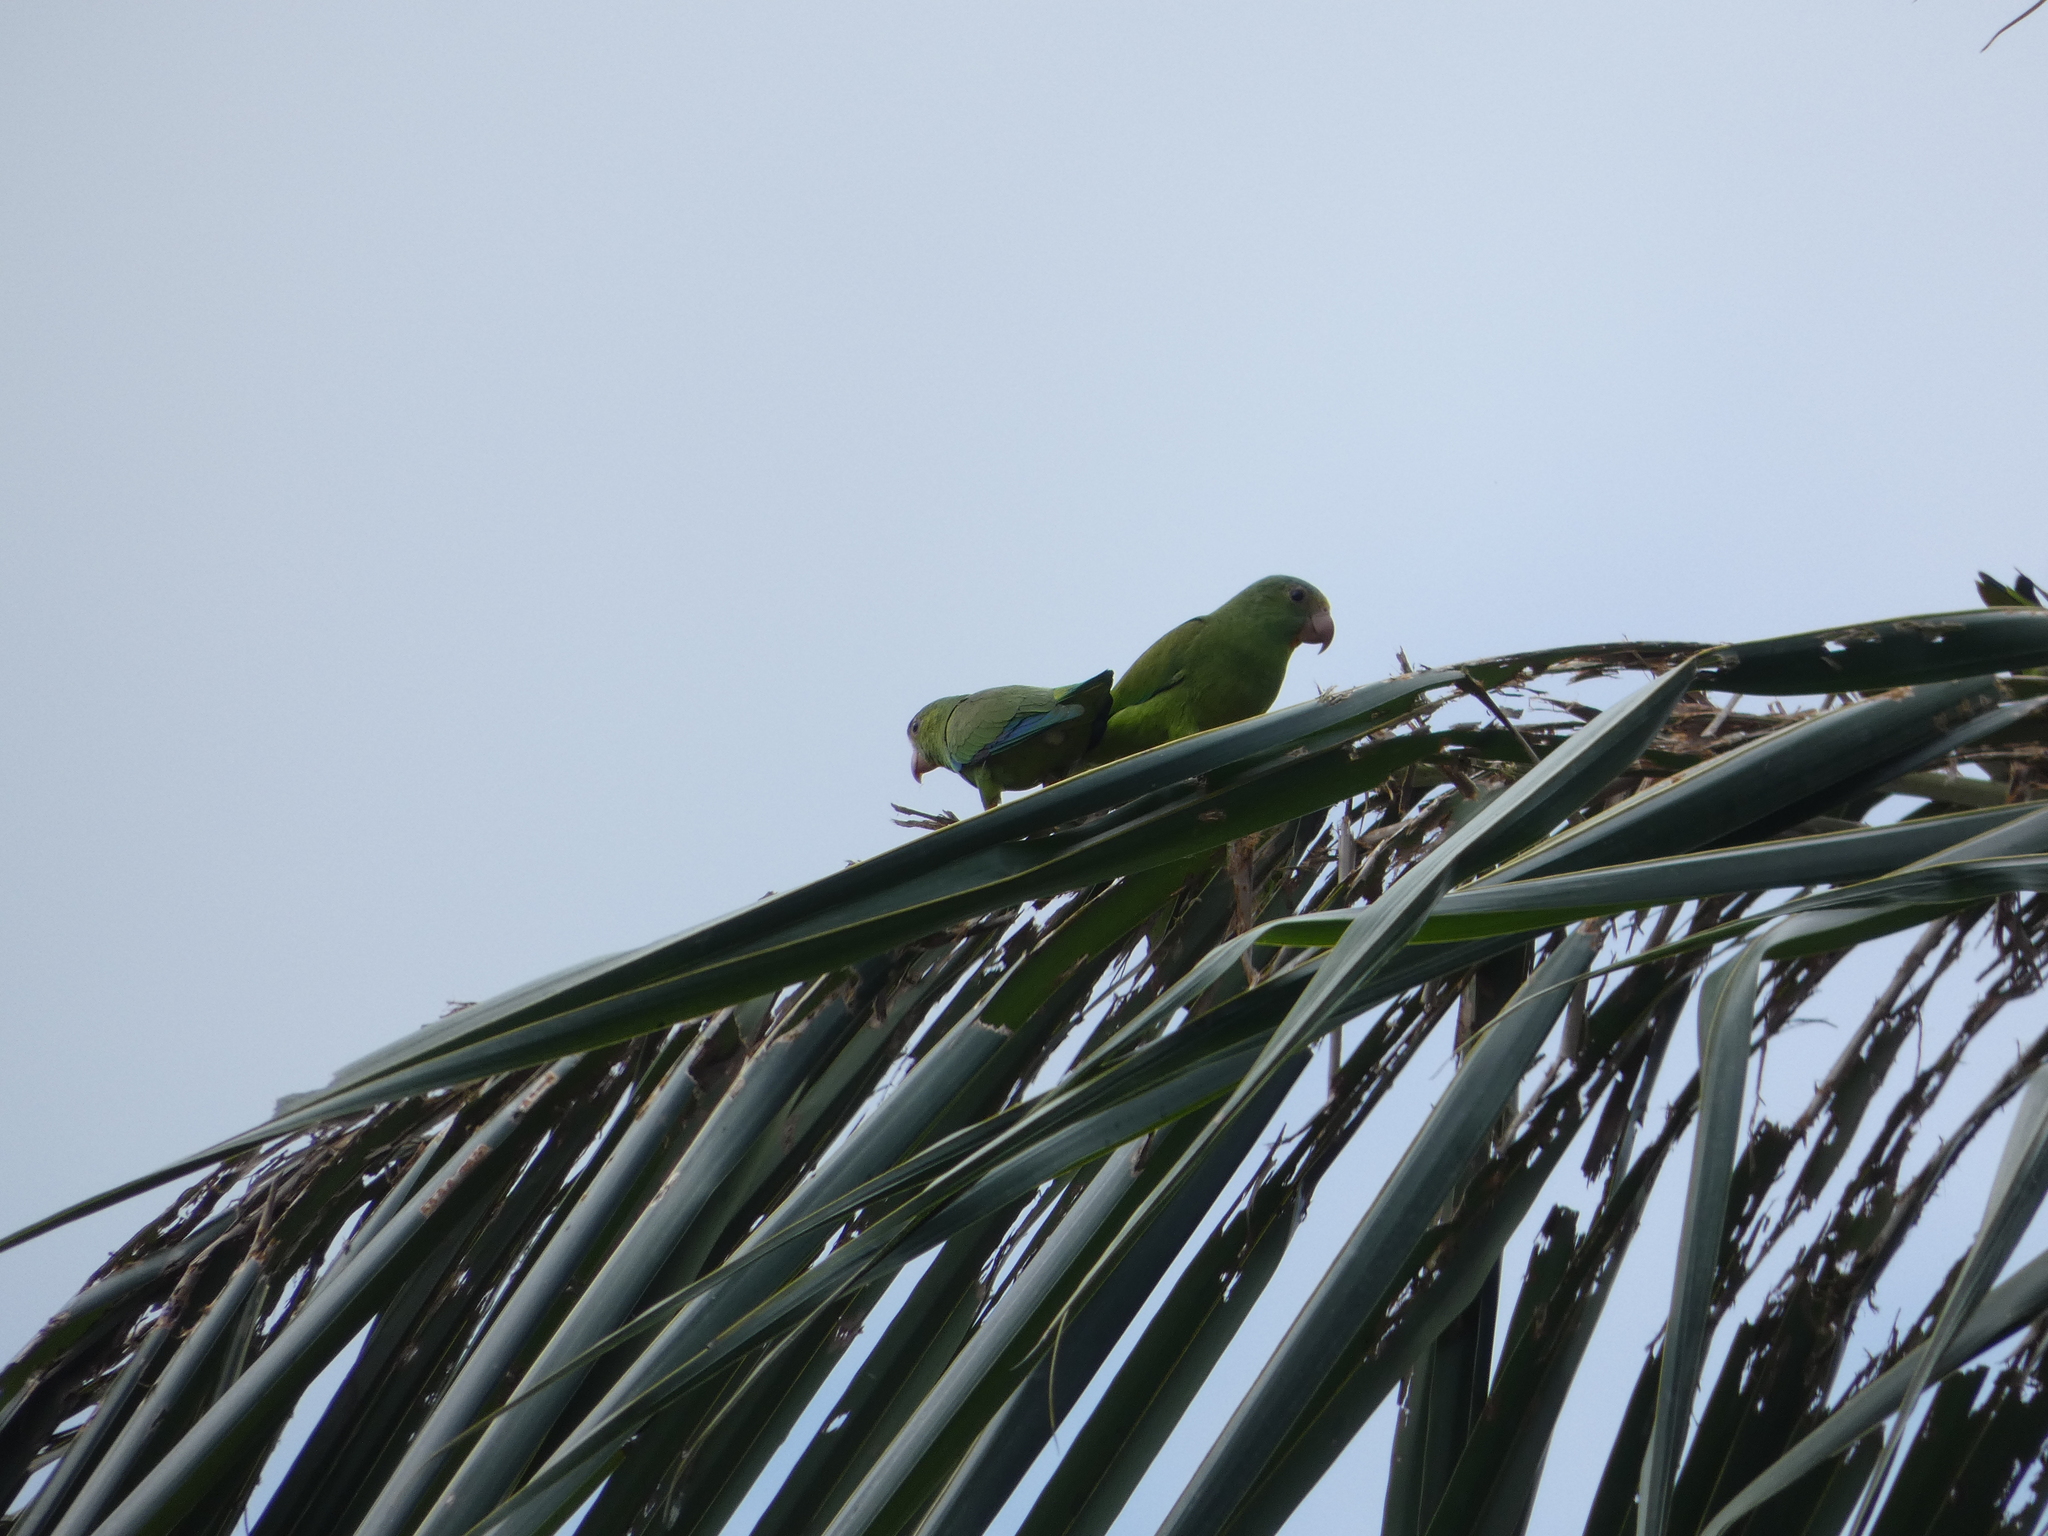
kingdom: Animalia
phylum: Chordata
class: Aves
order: Psittaciformes
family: Psittacidae
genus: Brotogeris
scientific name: Brotogeris cyanoptera
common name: Cobalt-winged parakeet
